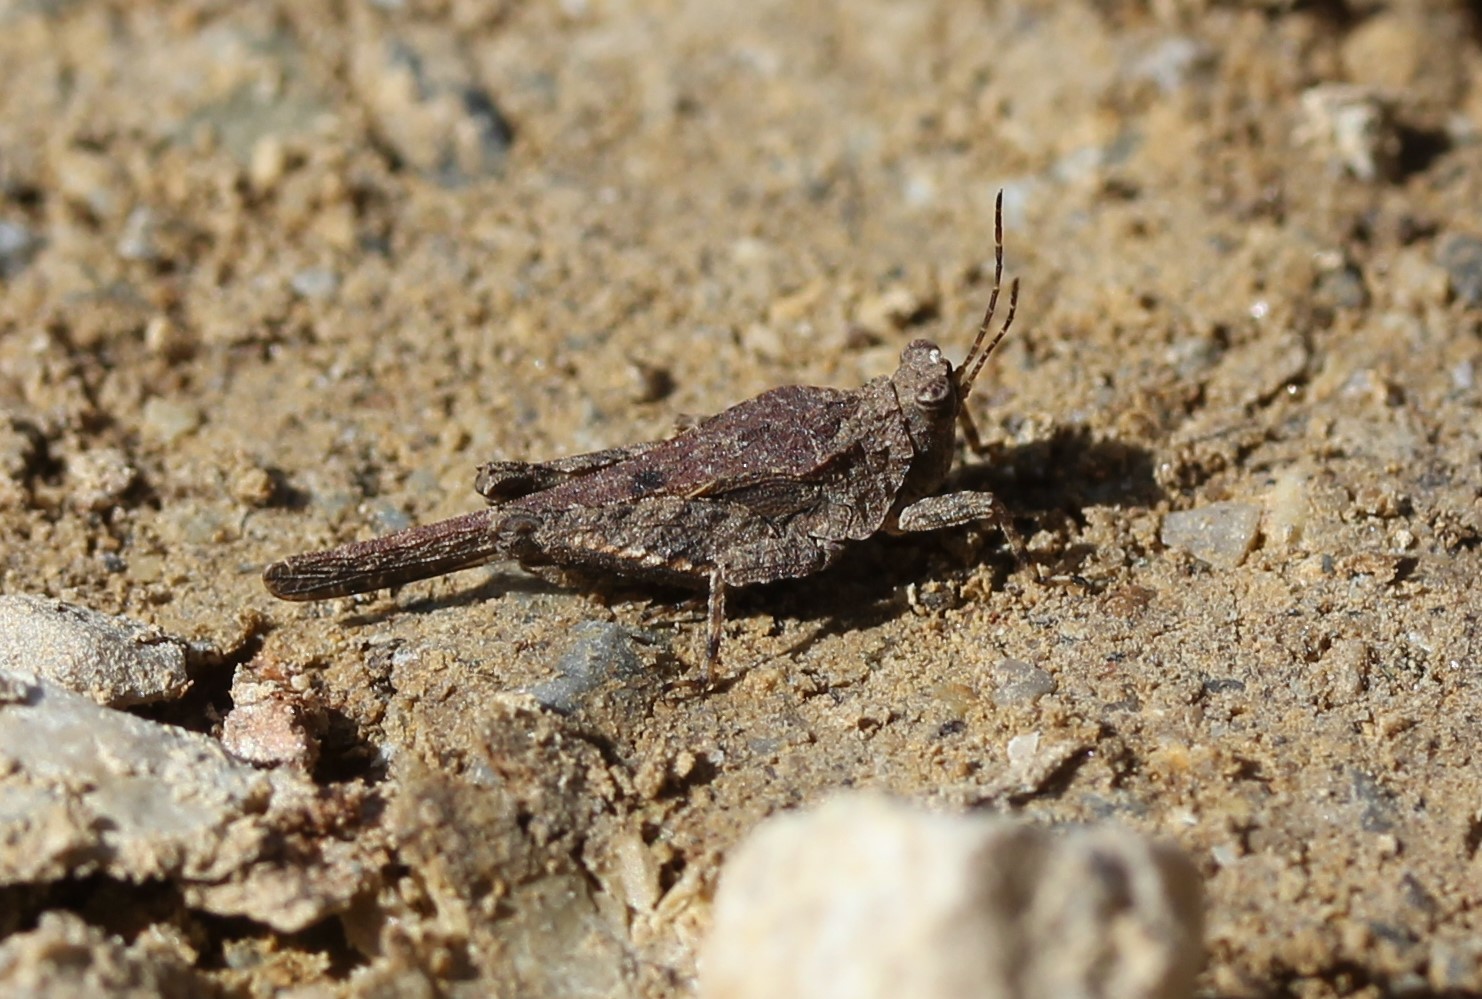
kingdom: Animalia
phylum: Arthropoda
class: Insecta
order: Orthoptera
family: Tetrigidae
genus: Tetrix
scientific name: Tetrix arenosa
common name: Ornate pygmy grasshopper
